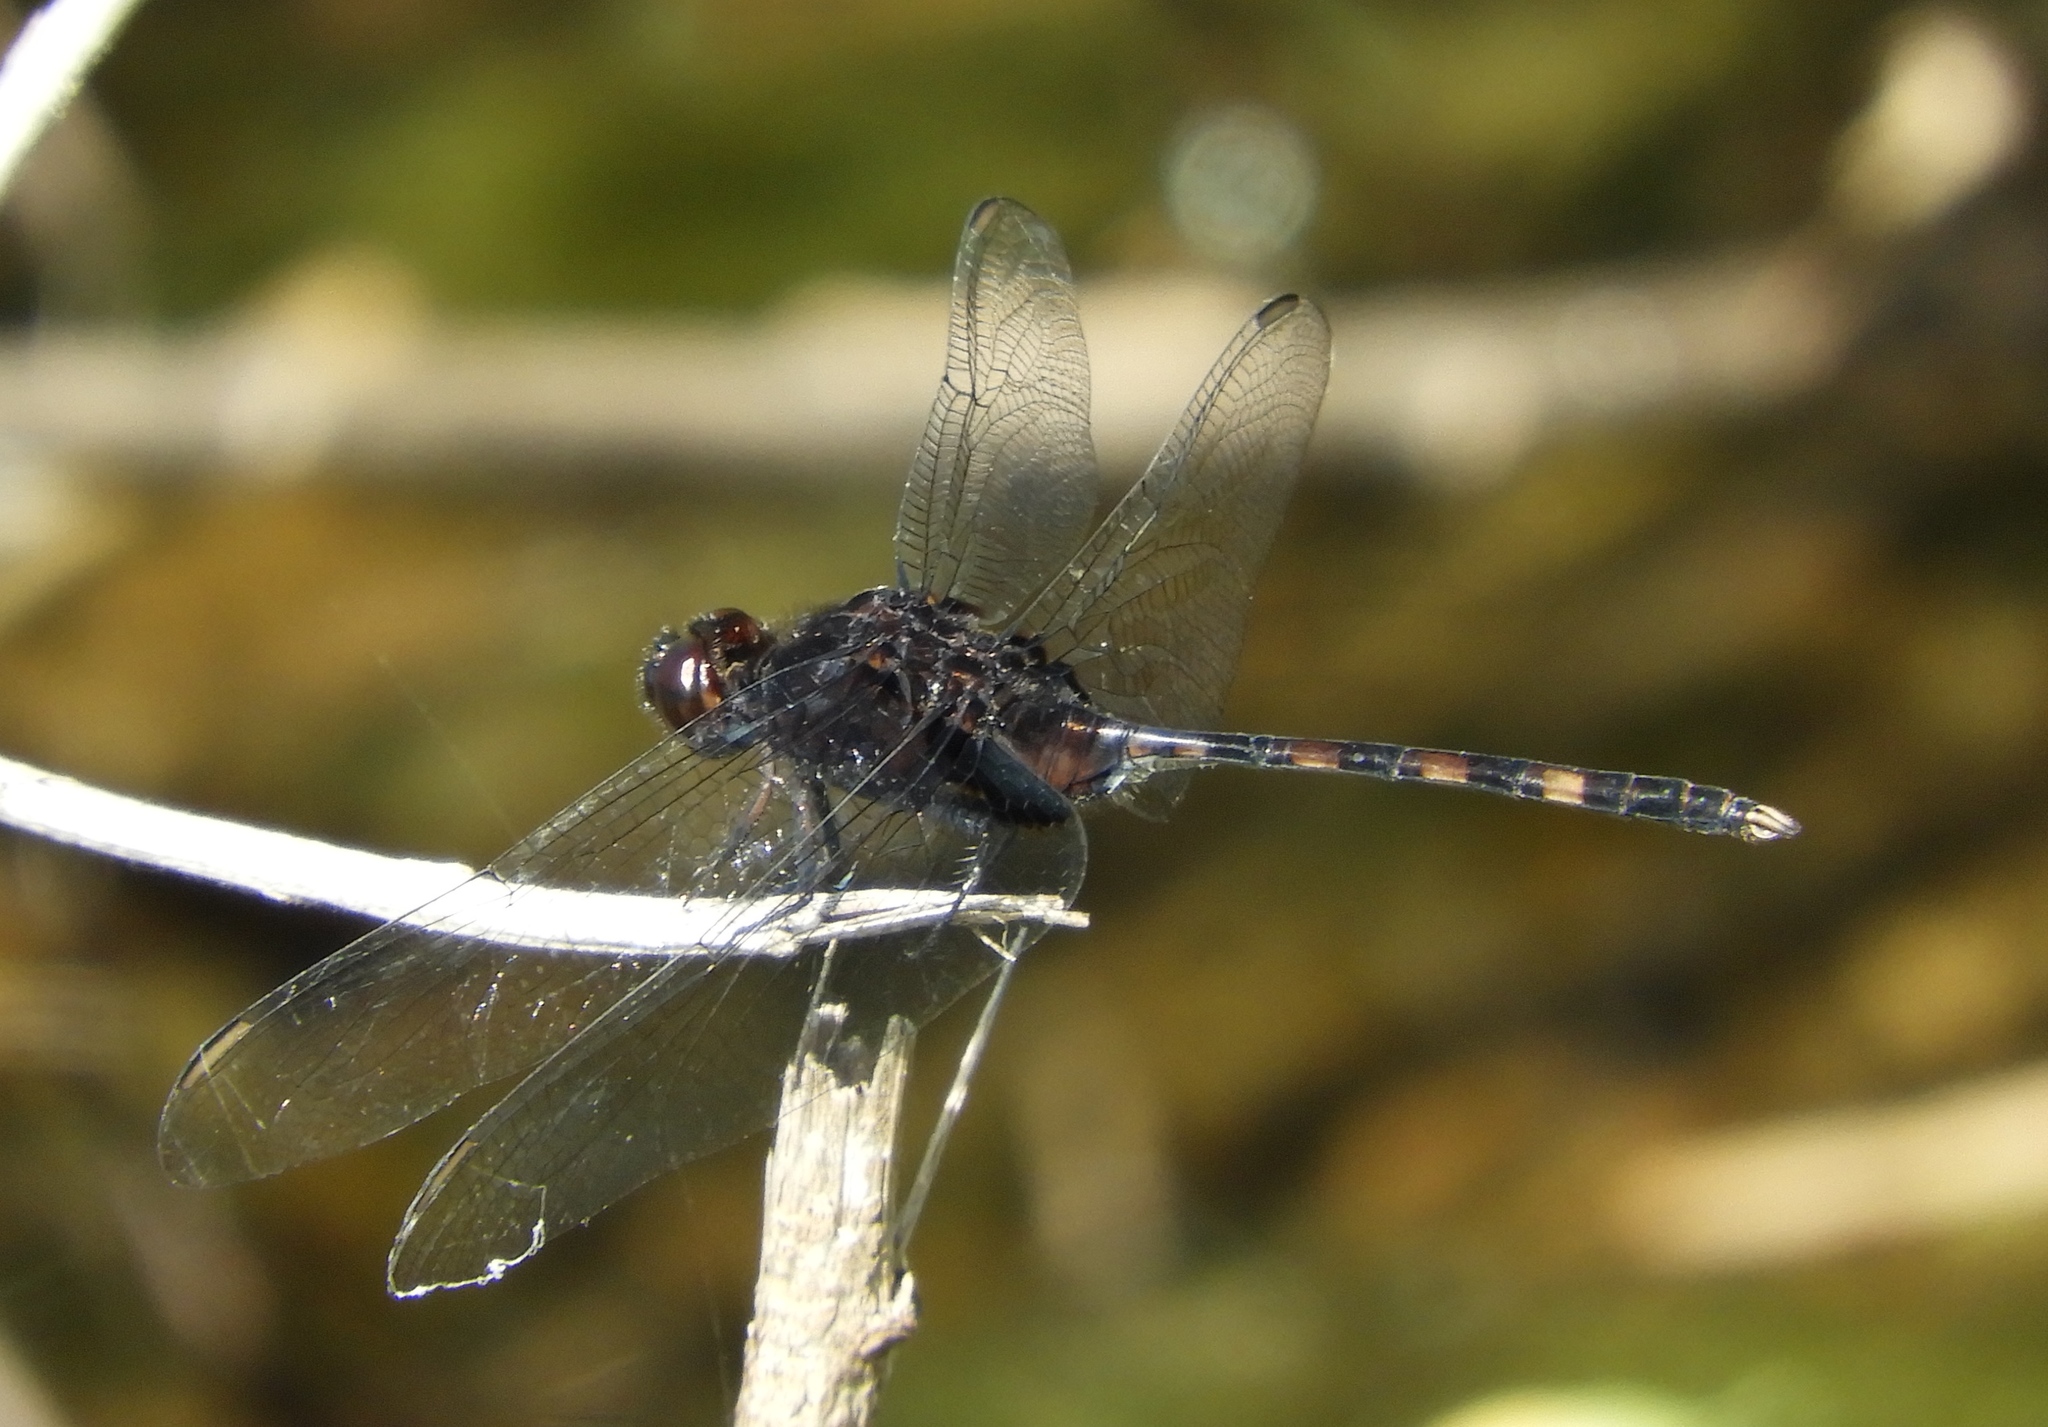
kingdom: Animalia
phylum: Arthropoda
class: Insecta
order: Odonata
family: Libellulidae
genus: Erythemis
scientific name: Erythemis plebeja
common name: Pin-tailed pondhawk
